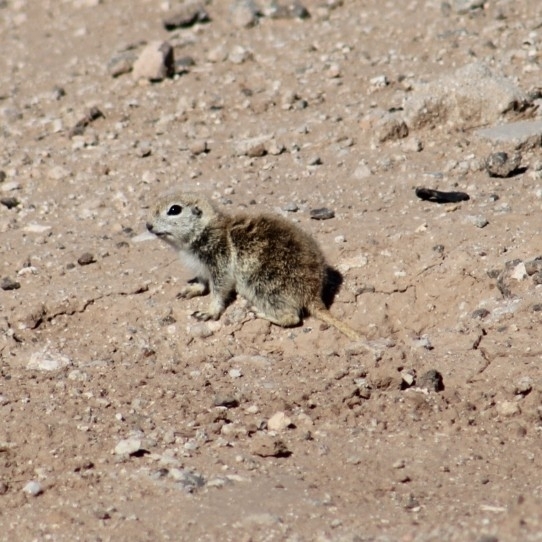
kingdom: Animalia
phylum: Chordata
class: Mammalia
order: Rodentia
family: Sciuridae
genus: Xerospermophilus
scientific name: Xerospermophilus tereticaudus
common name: Round-tailed ground squirrel
